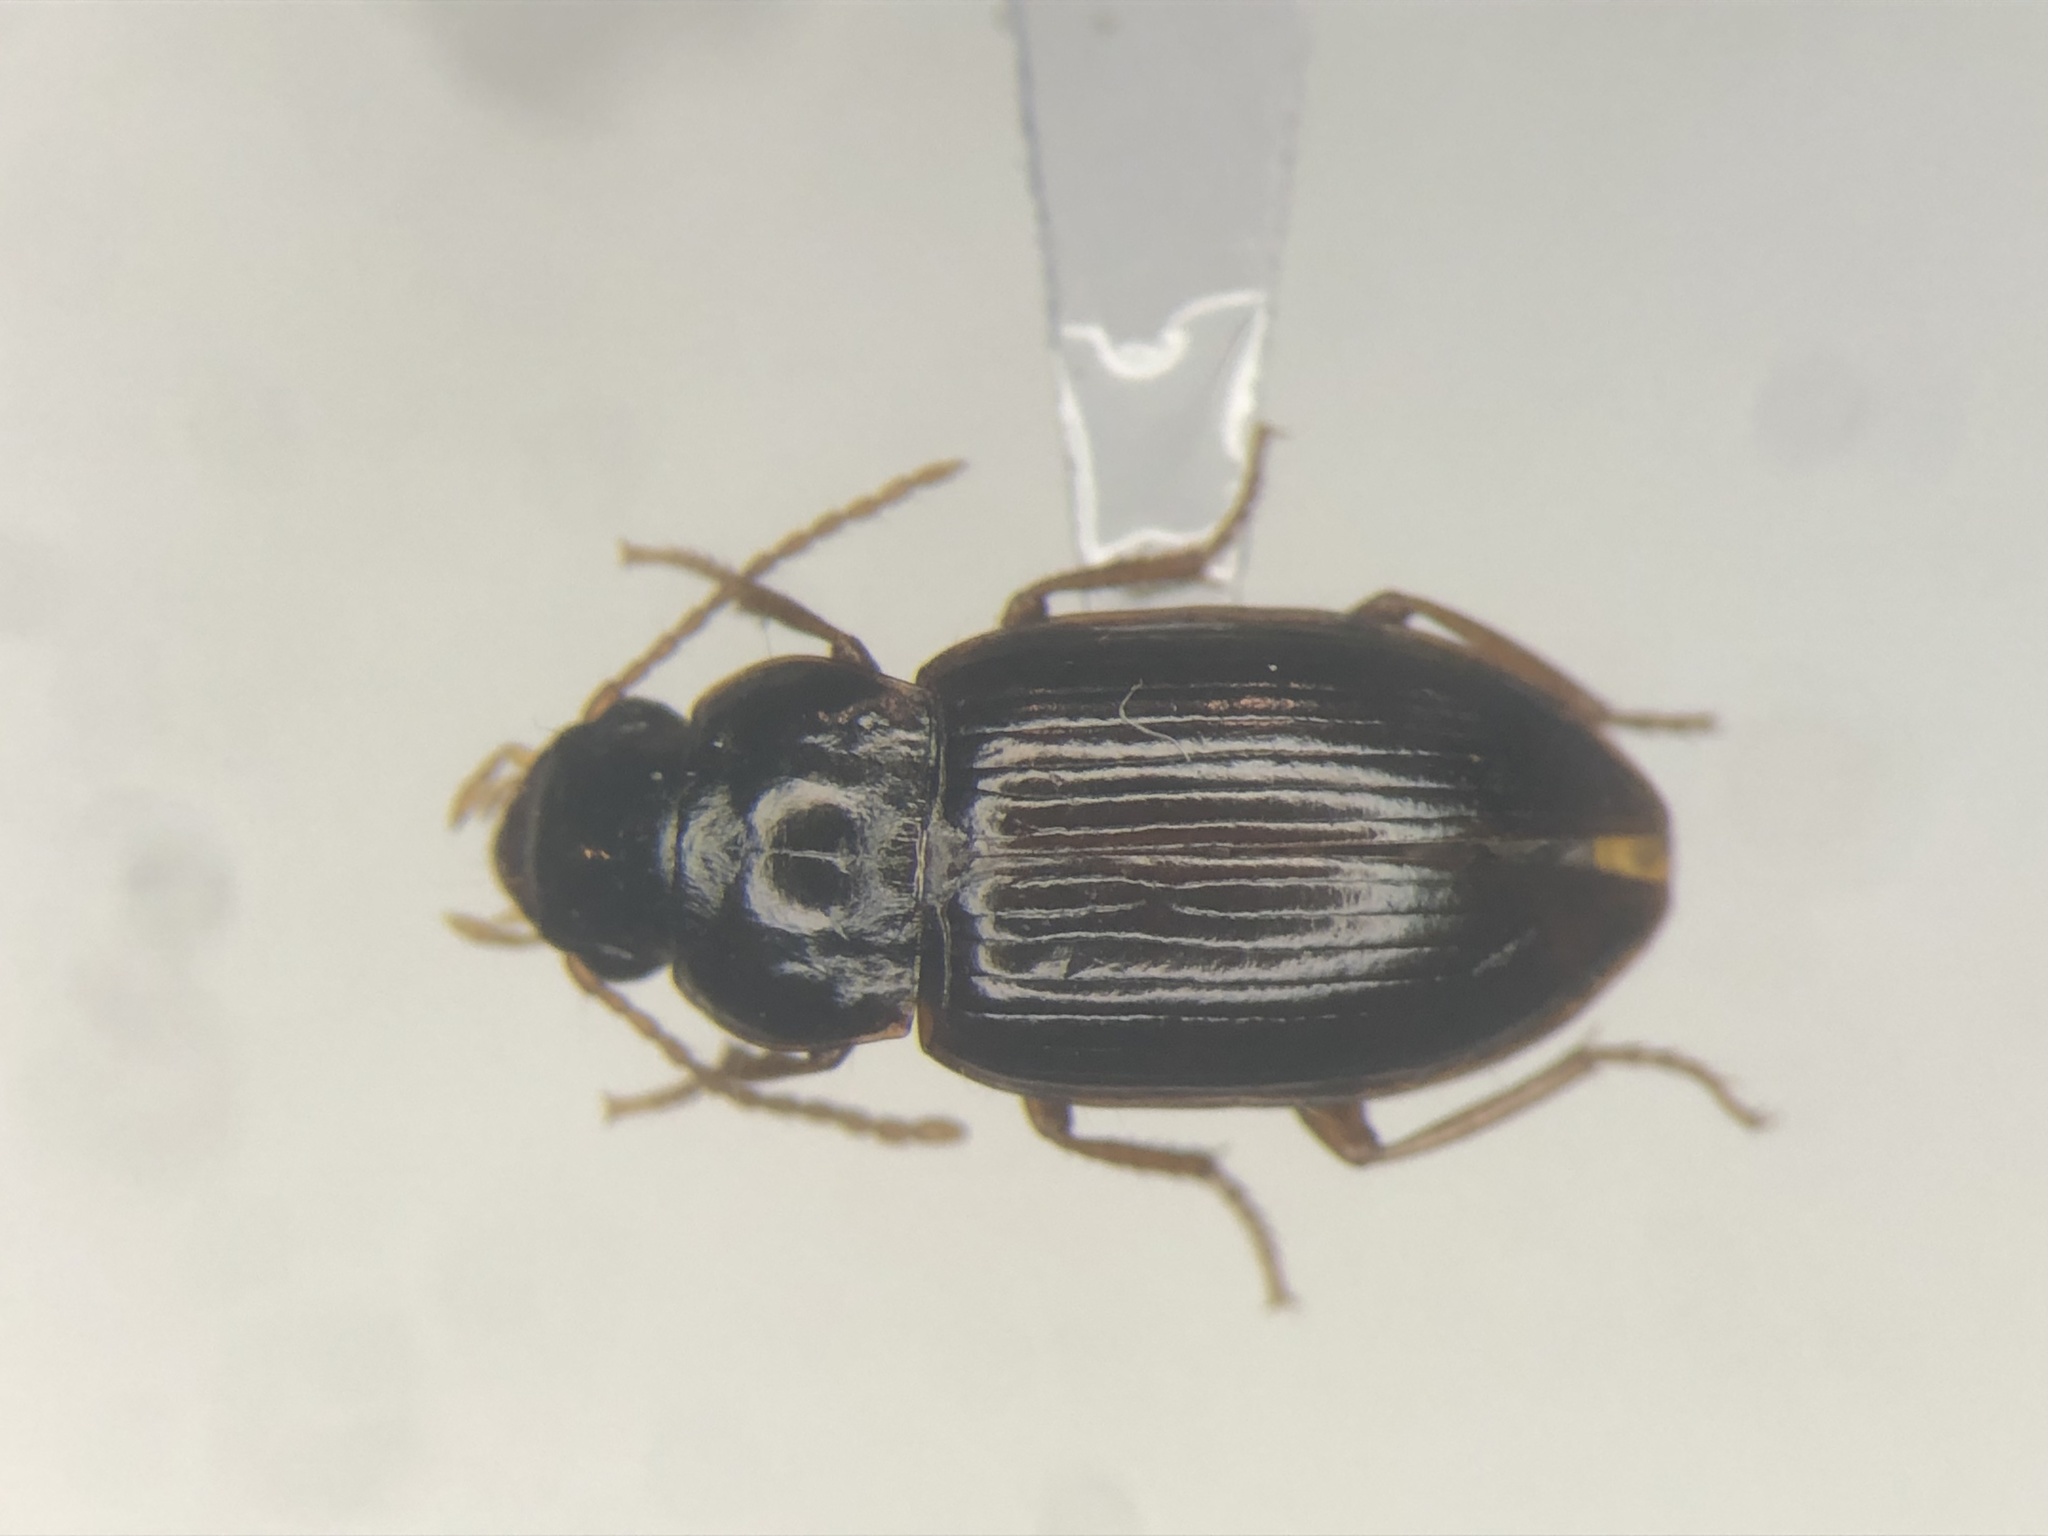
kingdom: Animalia
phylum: Arthropoda
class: Insecta
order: Coleoptera
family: Carabidae
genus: Pseudamara
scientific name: Pseudamara arenaria
